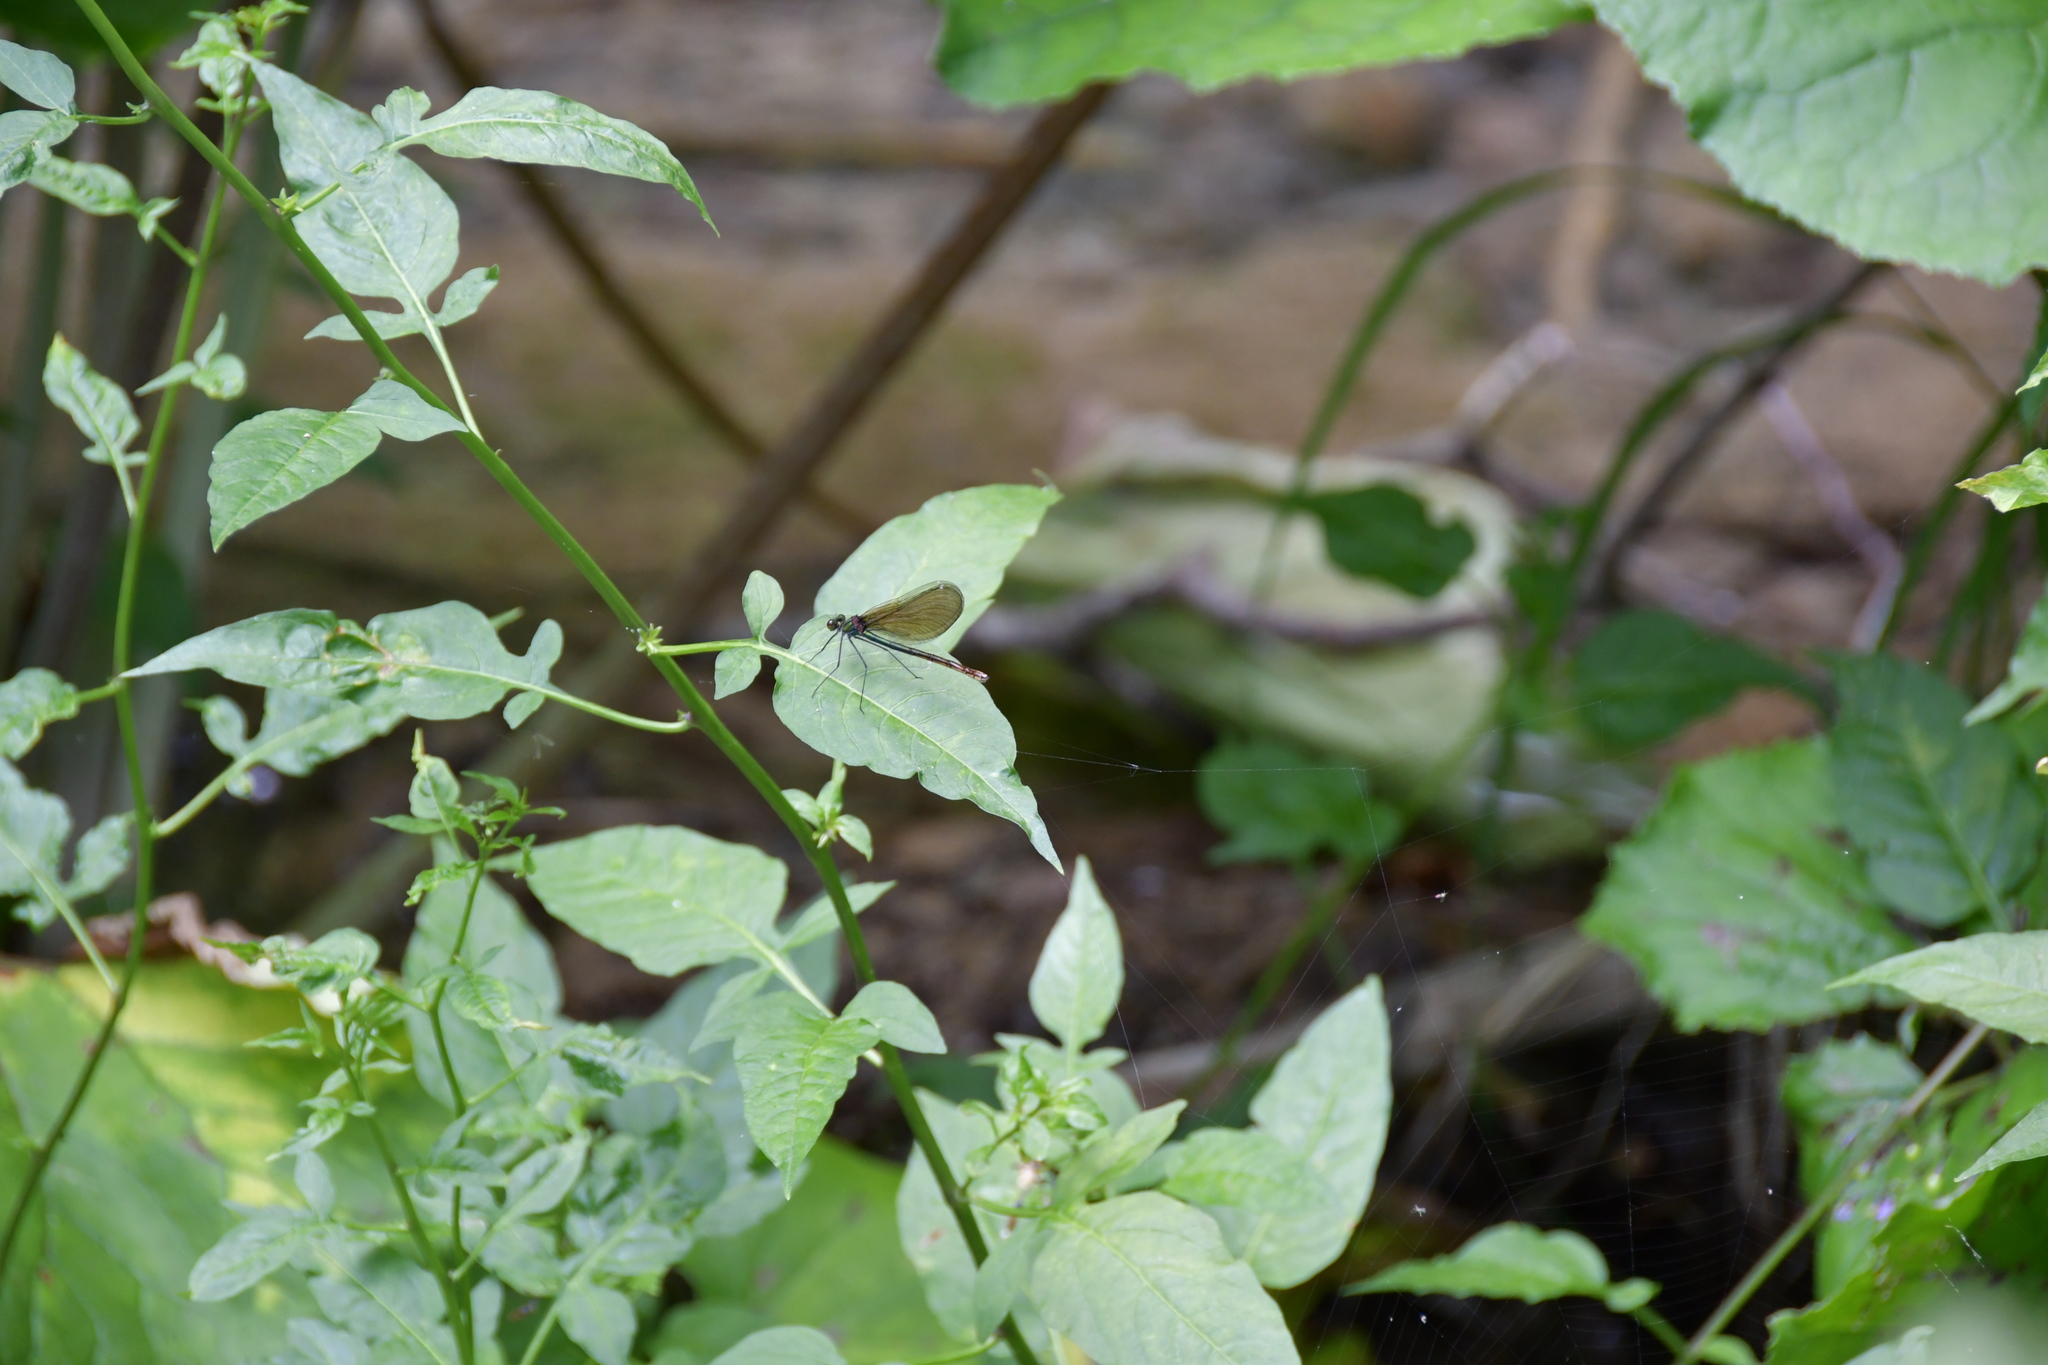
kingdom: Animalia
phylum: Arthropoda
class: Insecta
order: Odonata
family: Calopterygidae
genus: Calopteryx
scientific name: Calopteryx virgo
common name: Beautiful demoiselle
